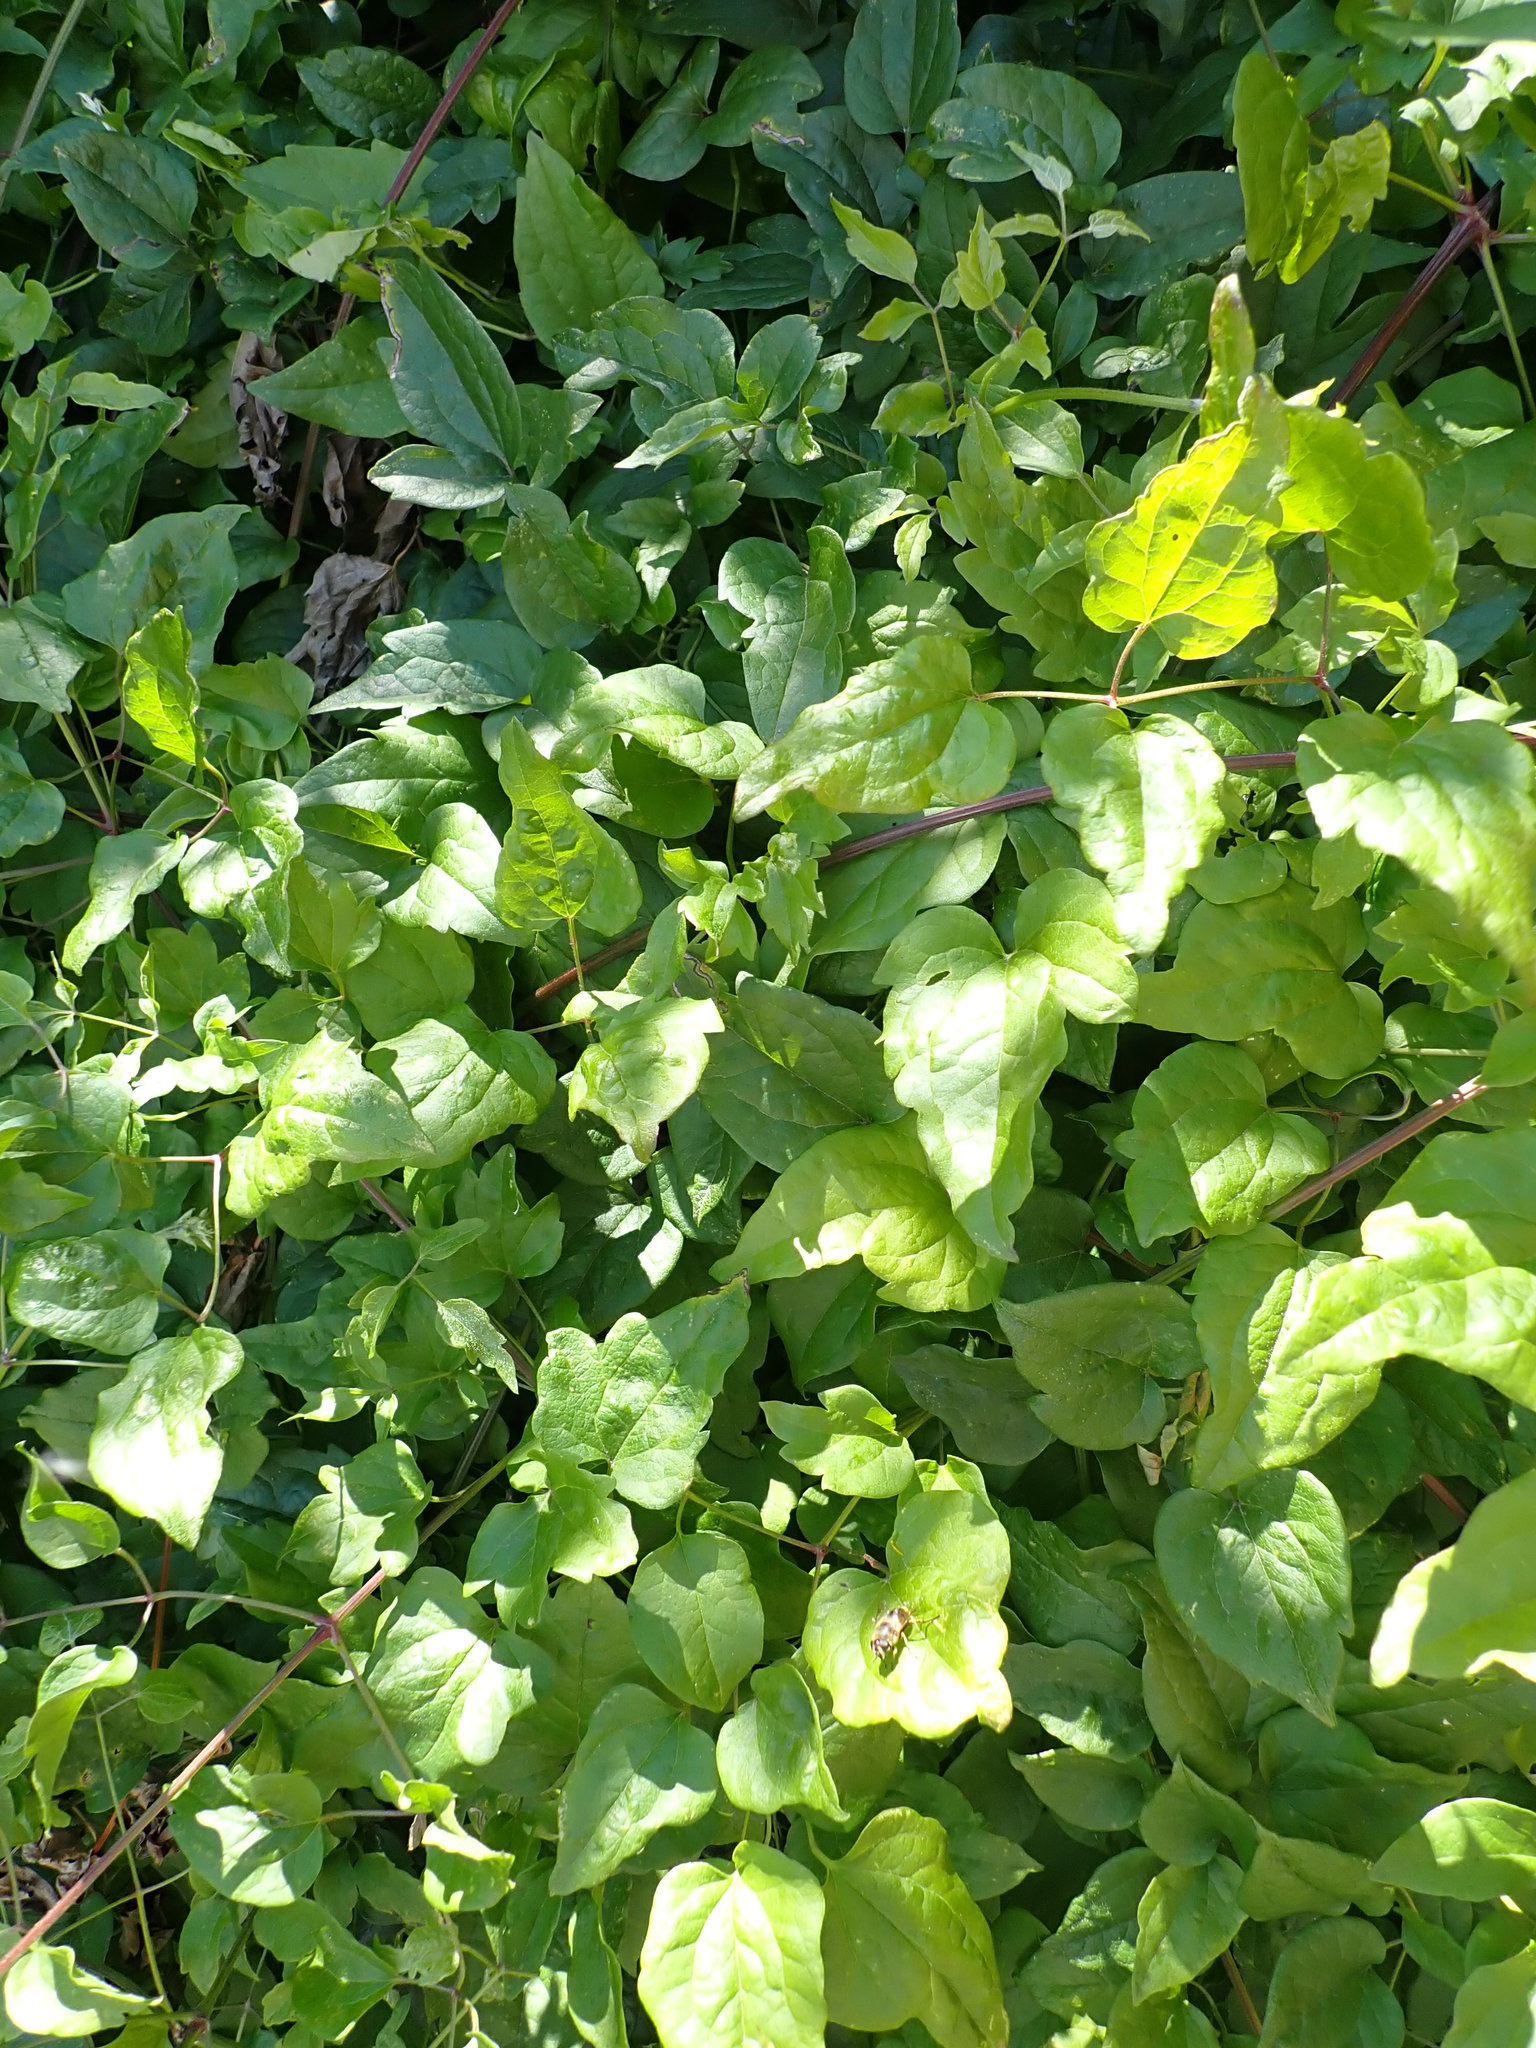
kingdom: Plantae
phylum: Tracheophyta
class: Magnoliopsida
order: Ranunculales
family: Ranunculaceae
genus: Clematis
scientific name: Clematis vitalba
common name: Evergreen clematis
